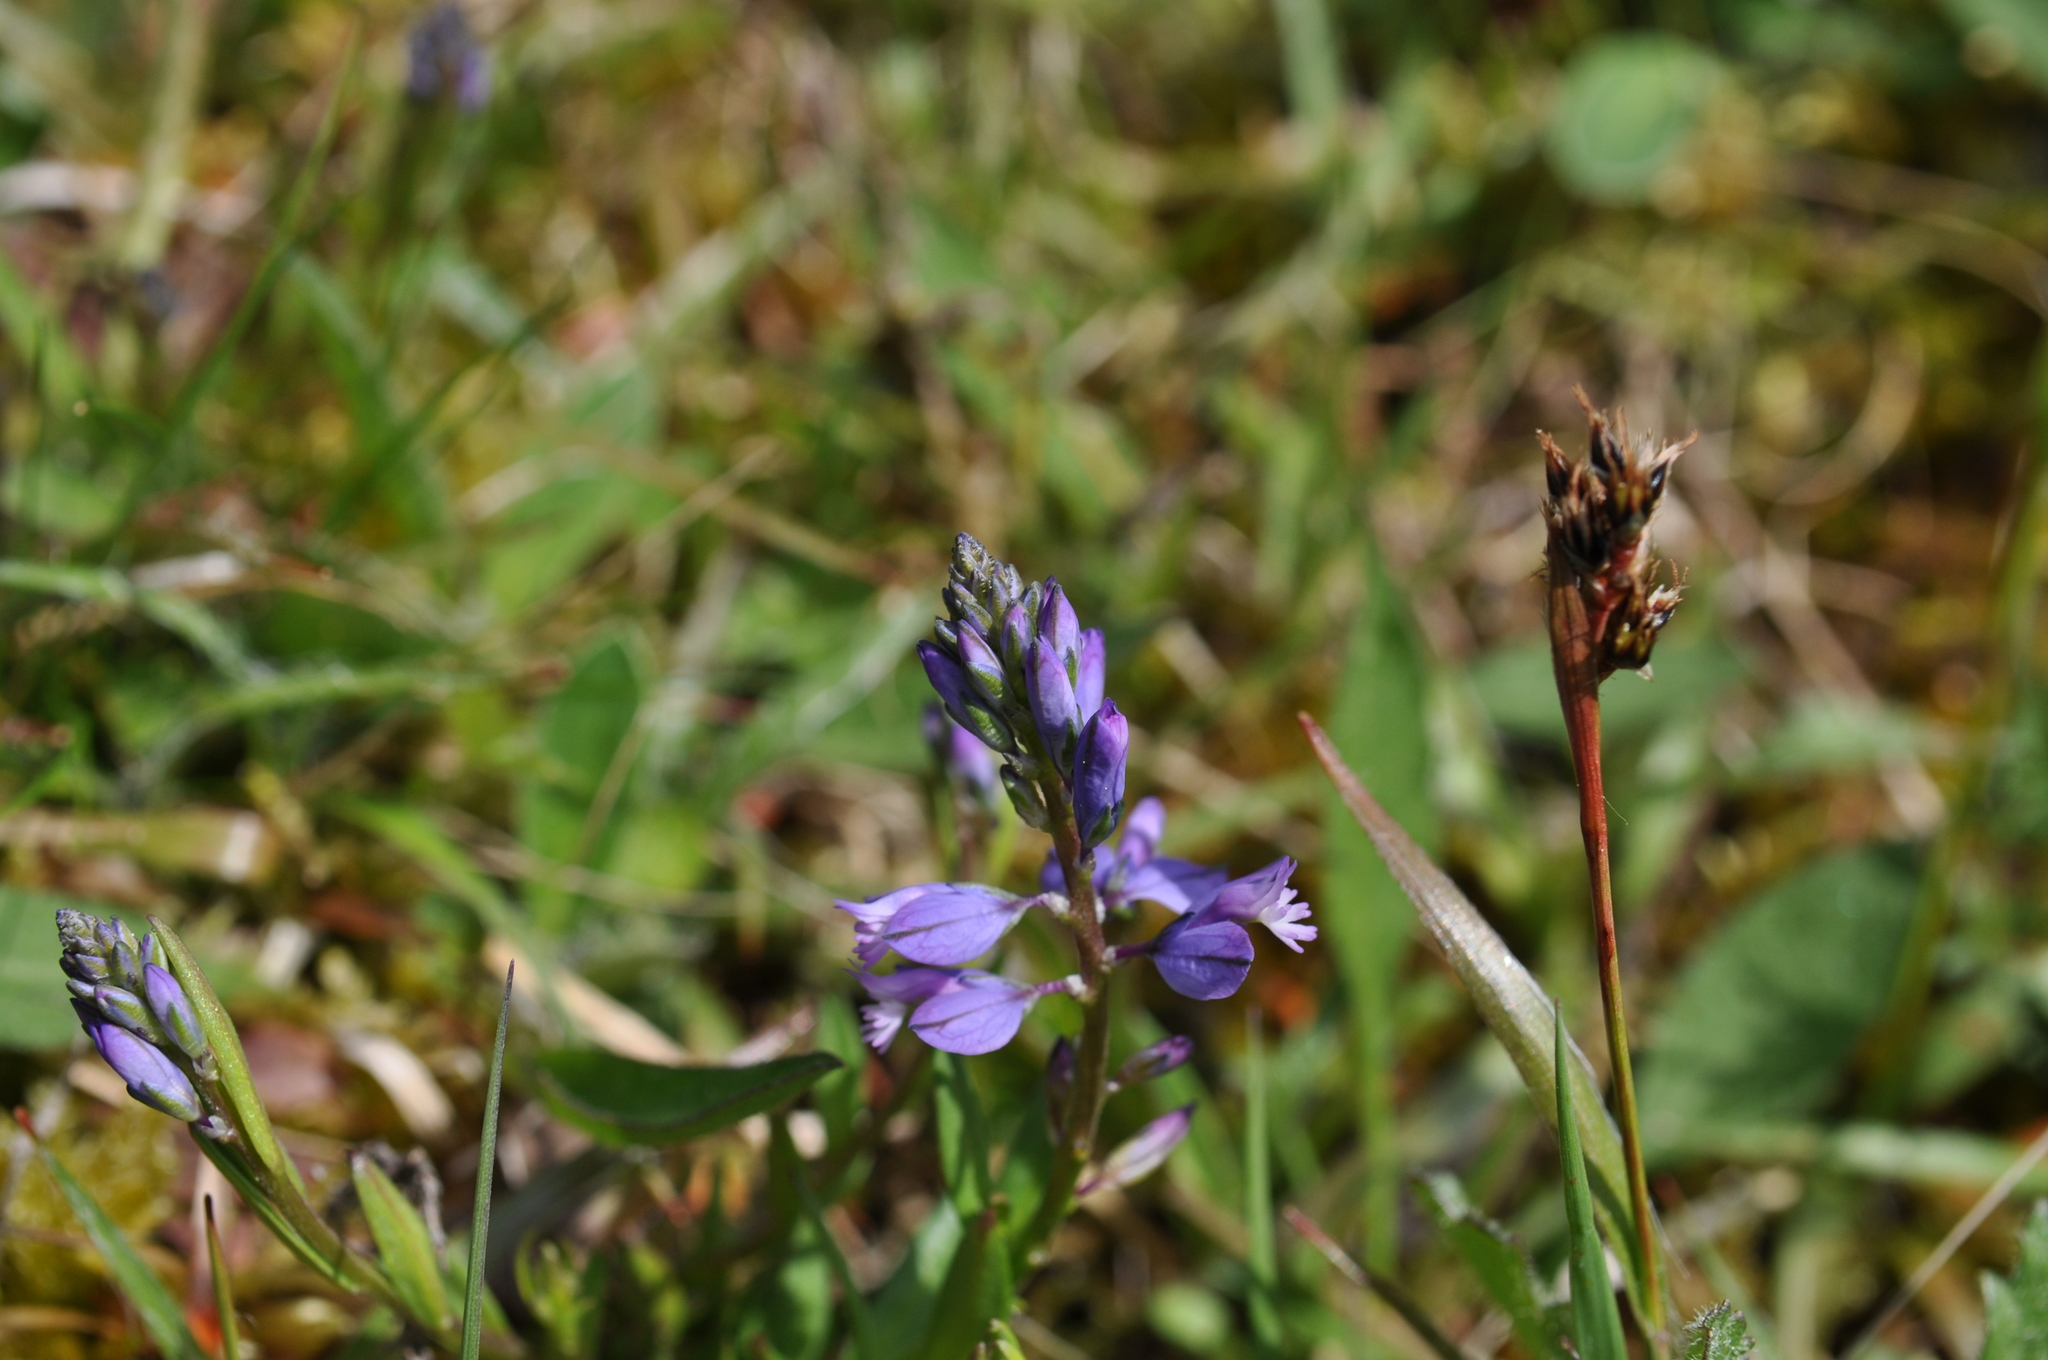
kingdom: Plantae
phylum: Tracheophyta
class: Magnoliopsida
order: Fabales
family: Polygalaceae
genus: Polygala
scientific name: Polygala vulgaris
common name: Common milkwort
